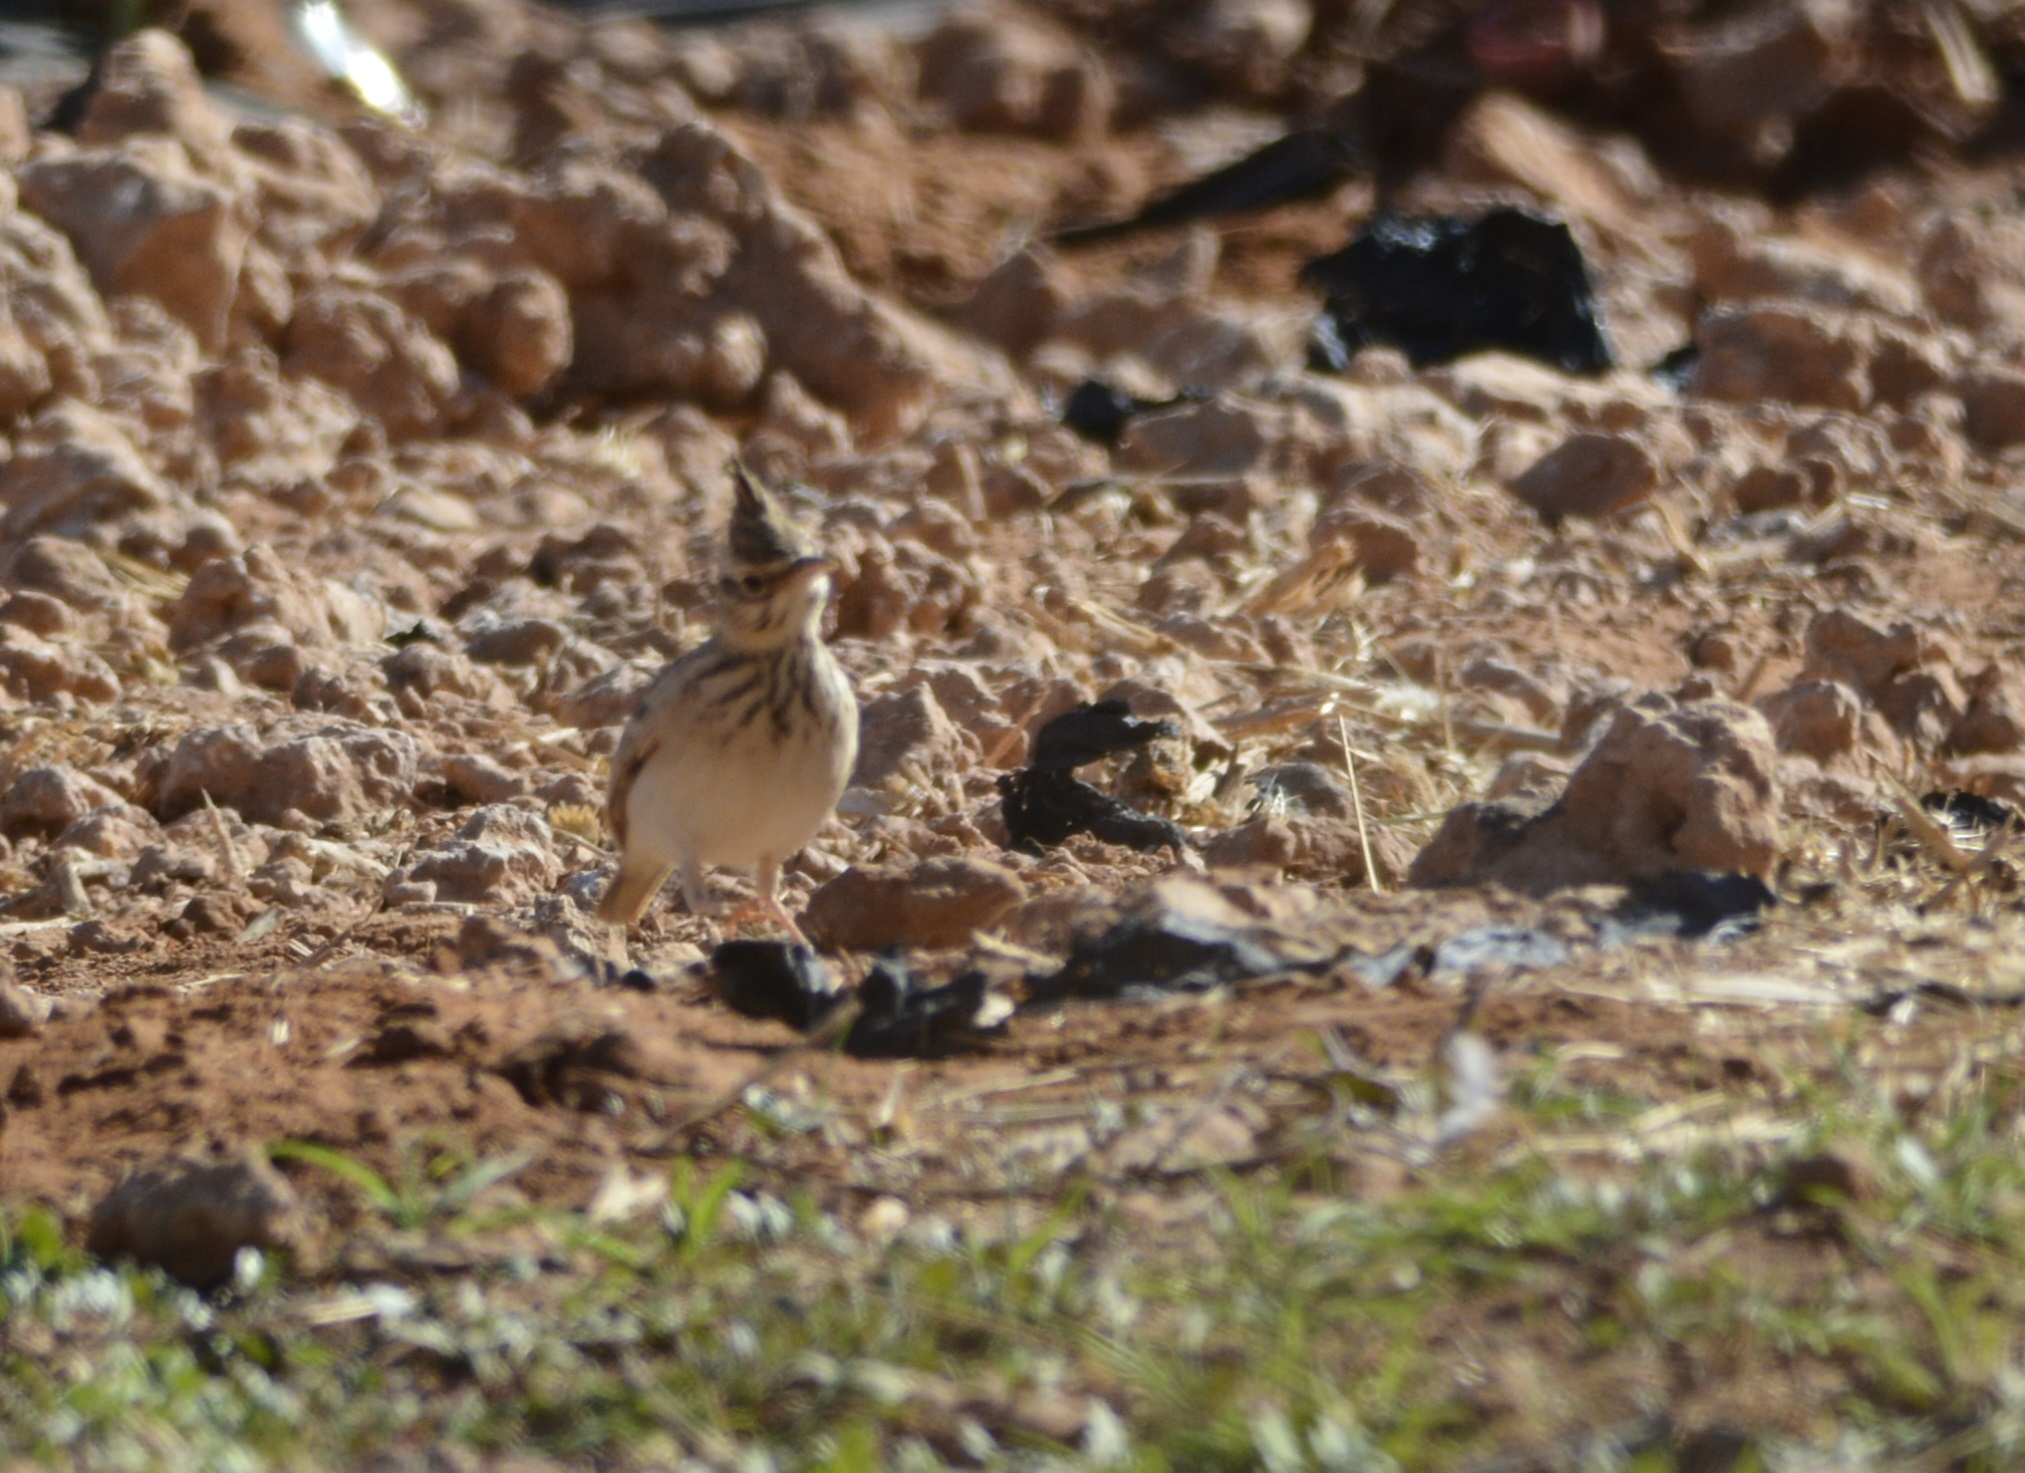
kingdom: Animalia
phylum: Chordata
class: Aves
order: Passeriformes
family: Alaudidae
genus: Galerida
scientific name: Galerida cristata
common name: Crested lark
